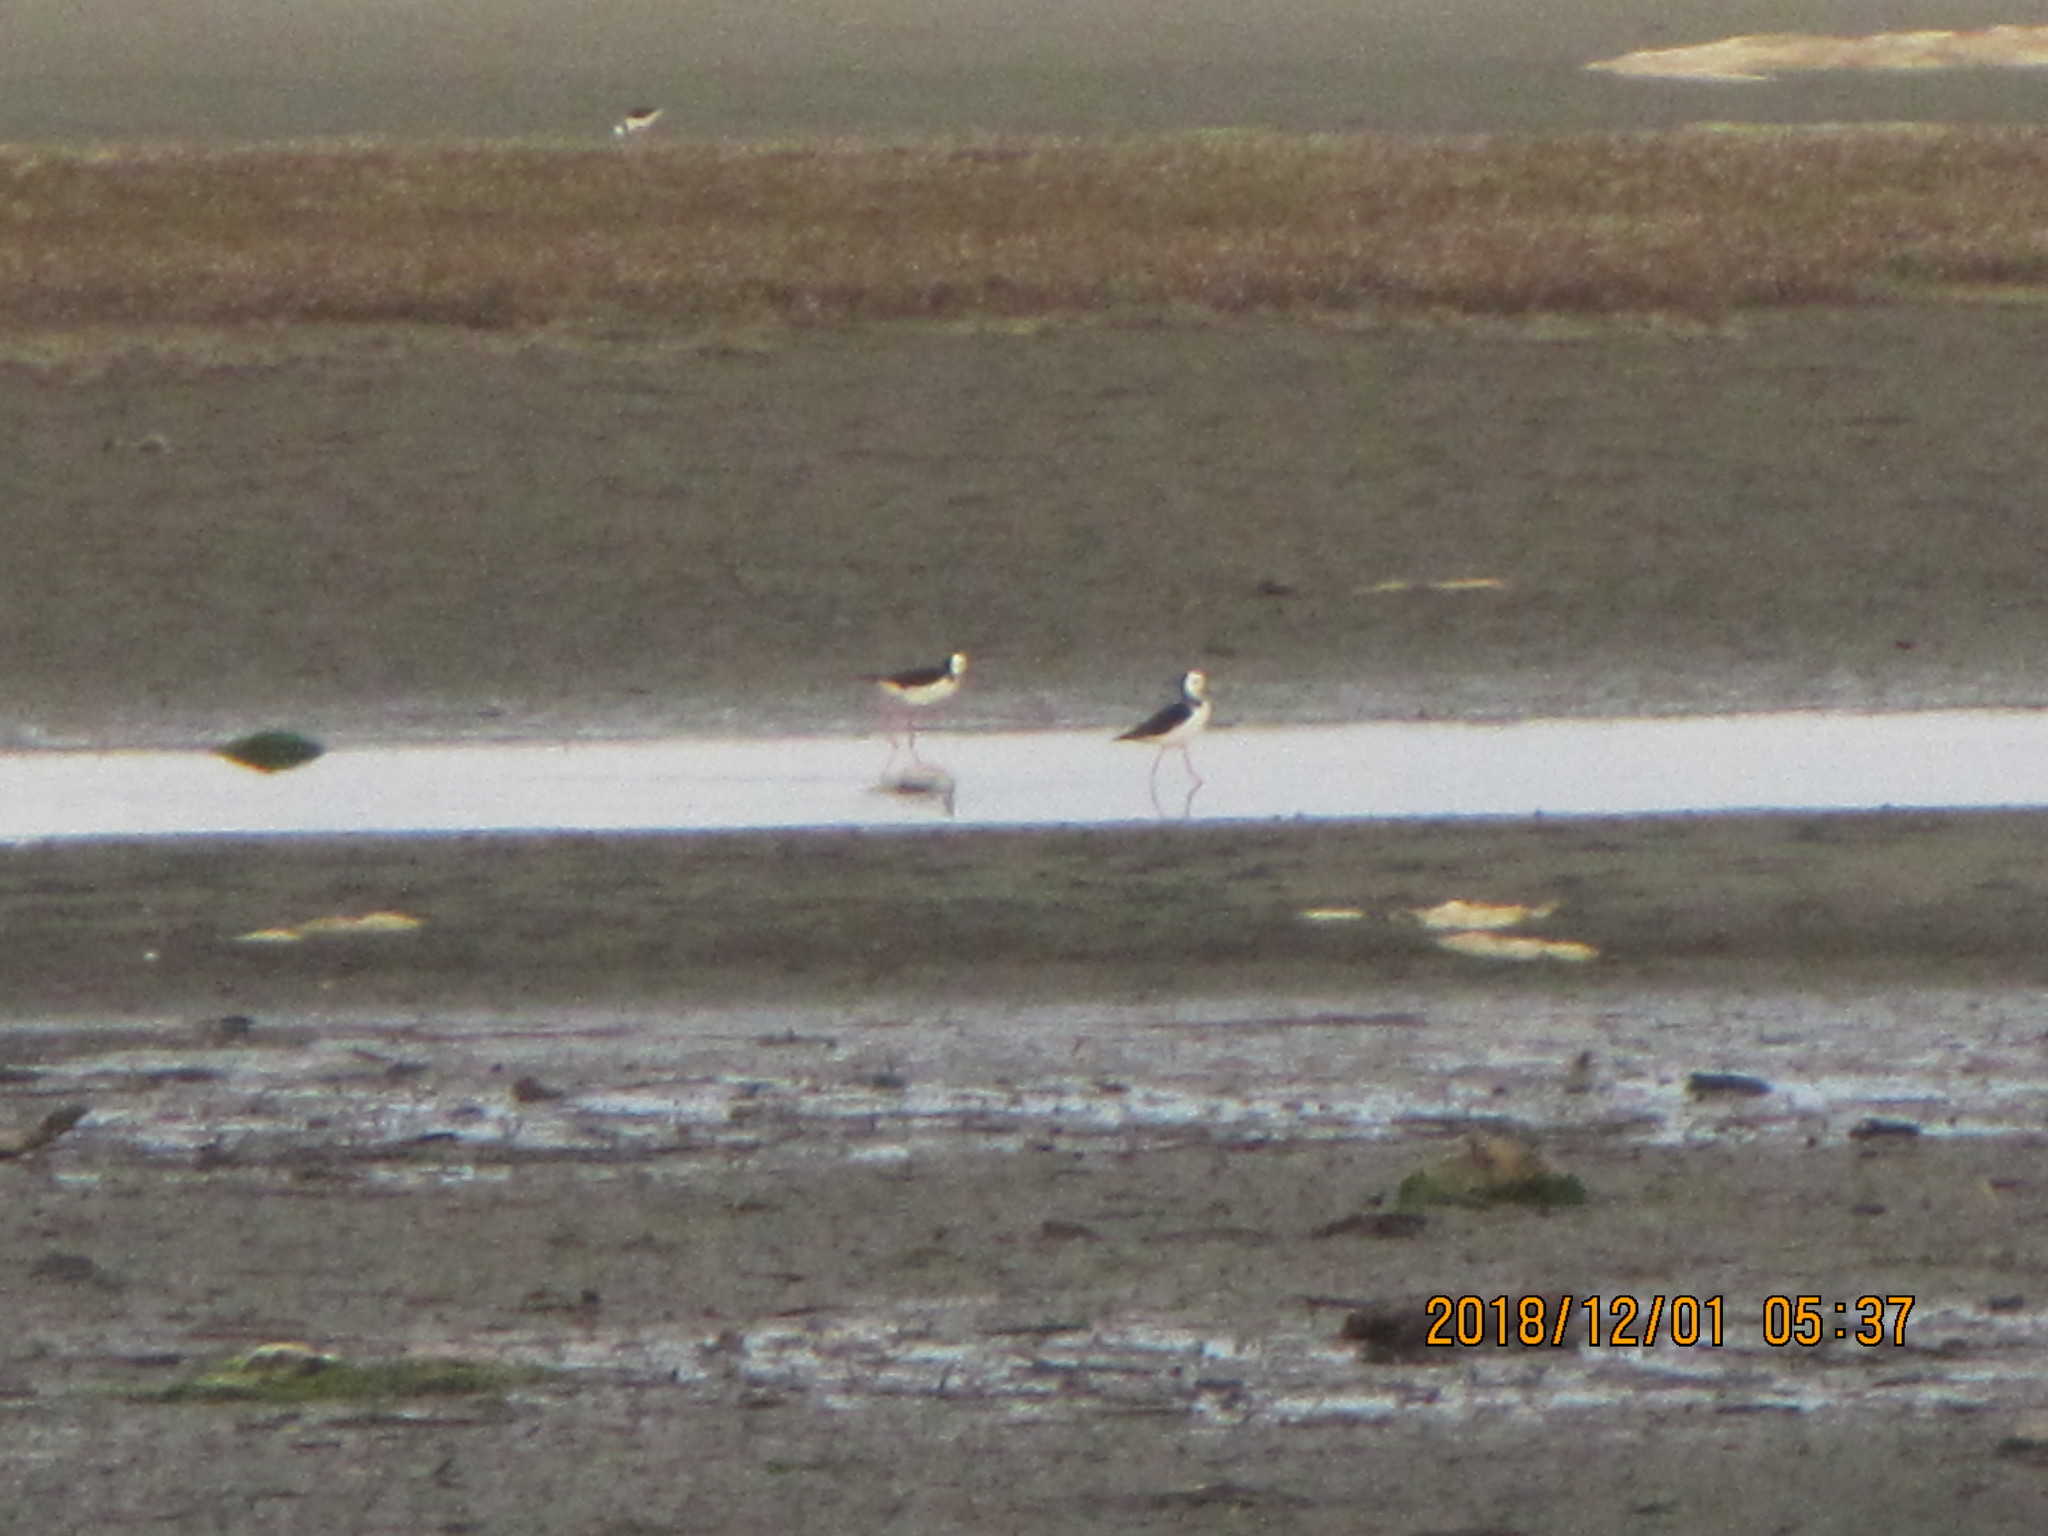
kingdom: Animalia
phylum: Chordata
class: Aves
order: Charadriiformes
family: Recurvirostridae
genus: Himantopus
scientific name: Himantopus leucocephalus
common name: White-headed stilt
